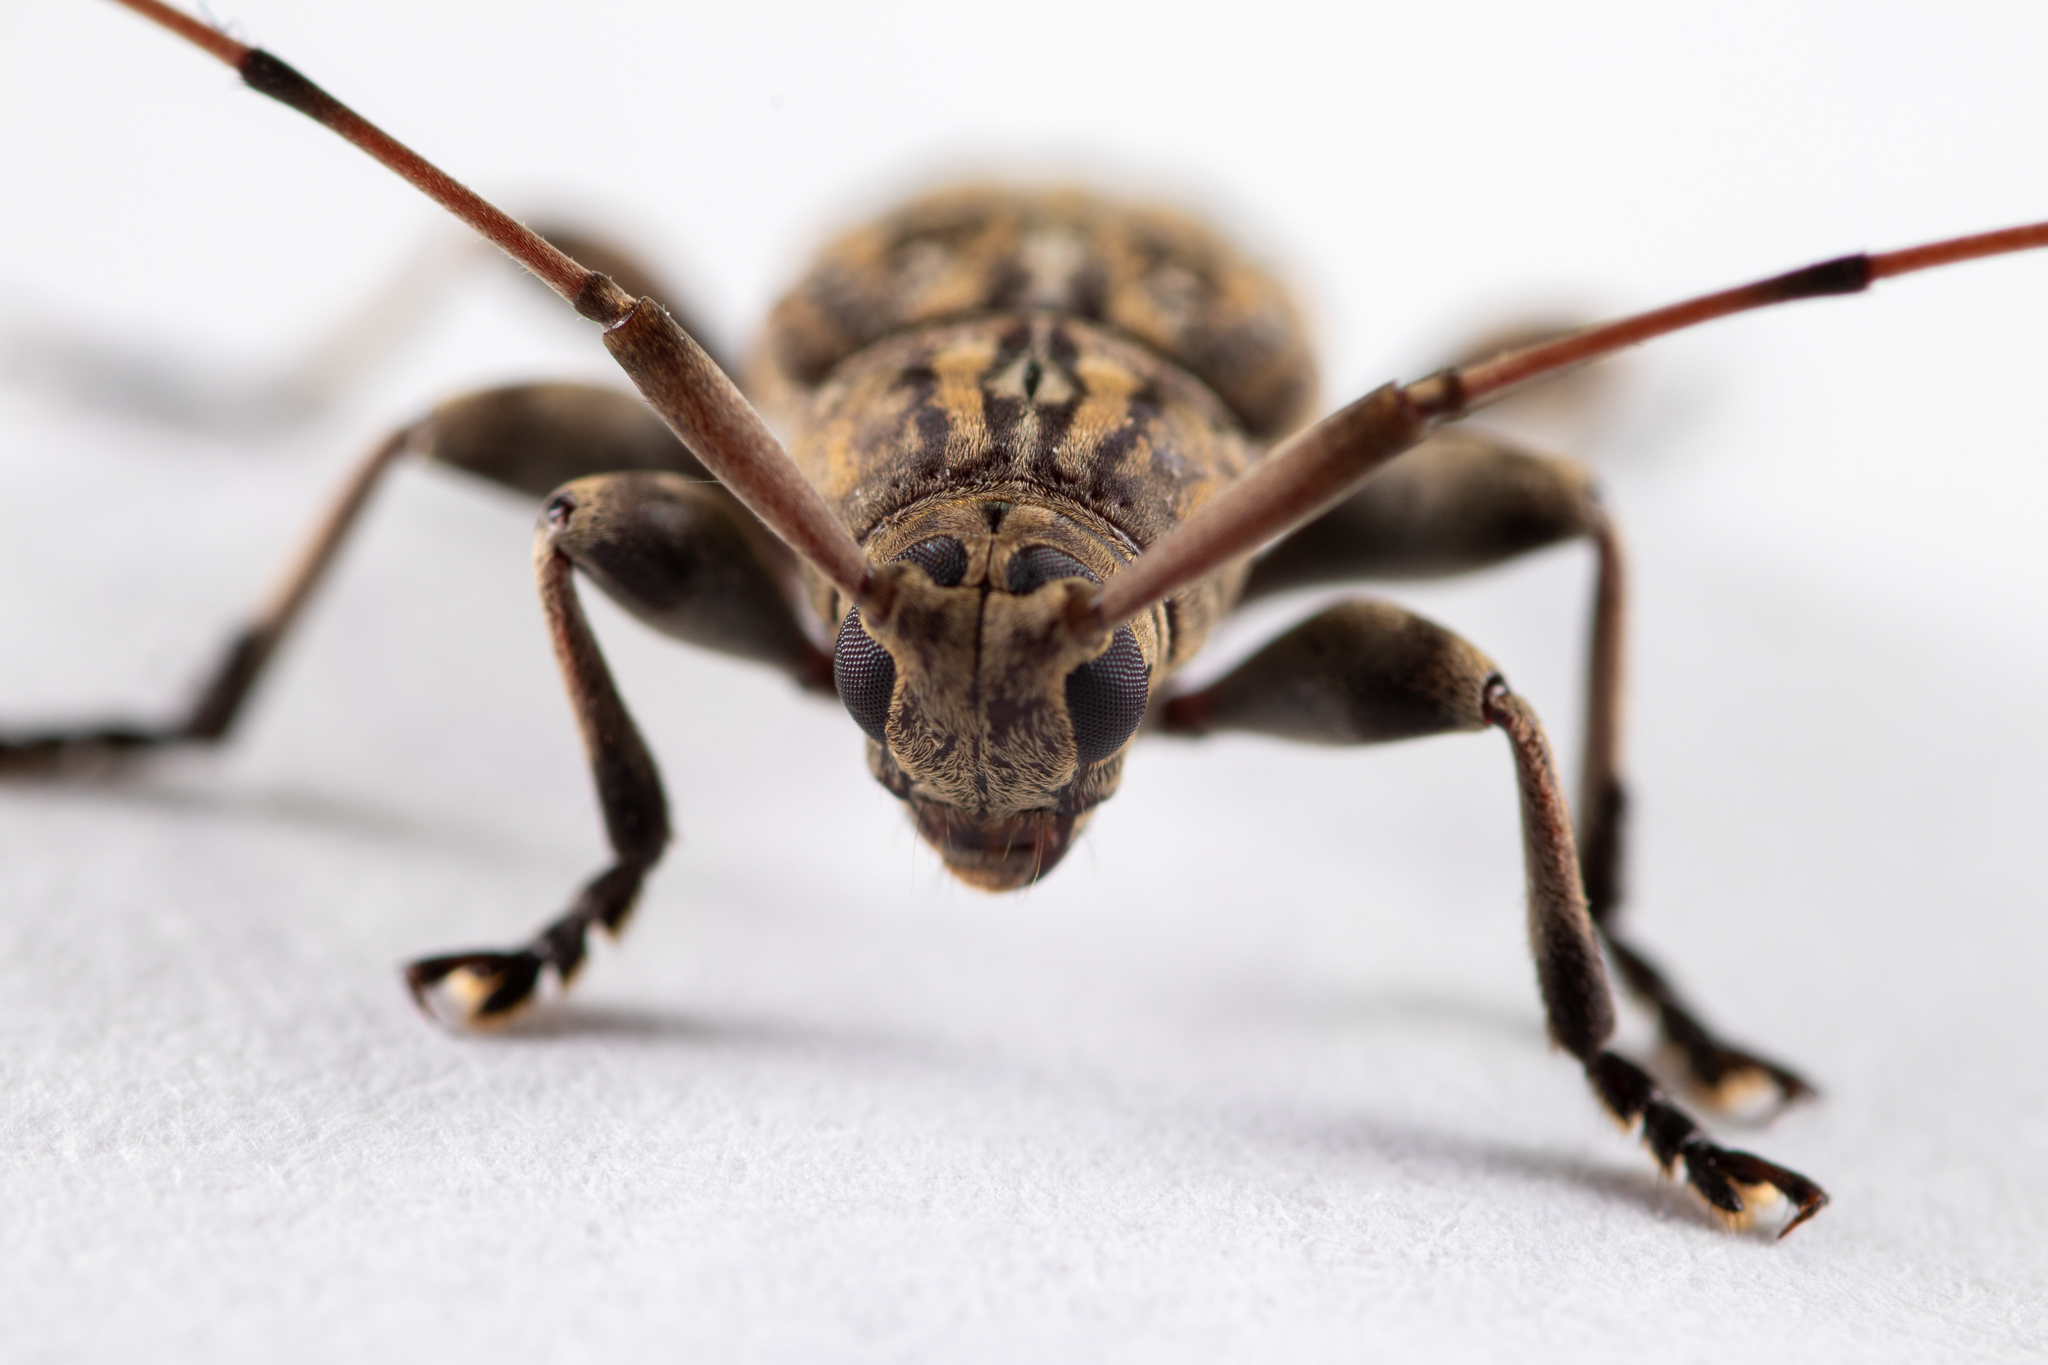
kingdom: Animalia
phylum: Arthropoda
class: Insecta
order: Coleoptera
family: Cerambycidae
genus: Atrypanius
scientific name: Atrypanius haldemani
